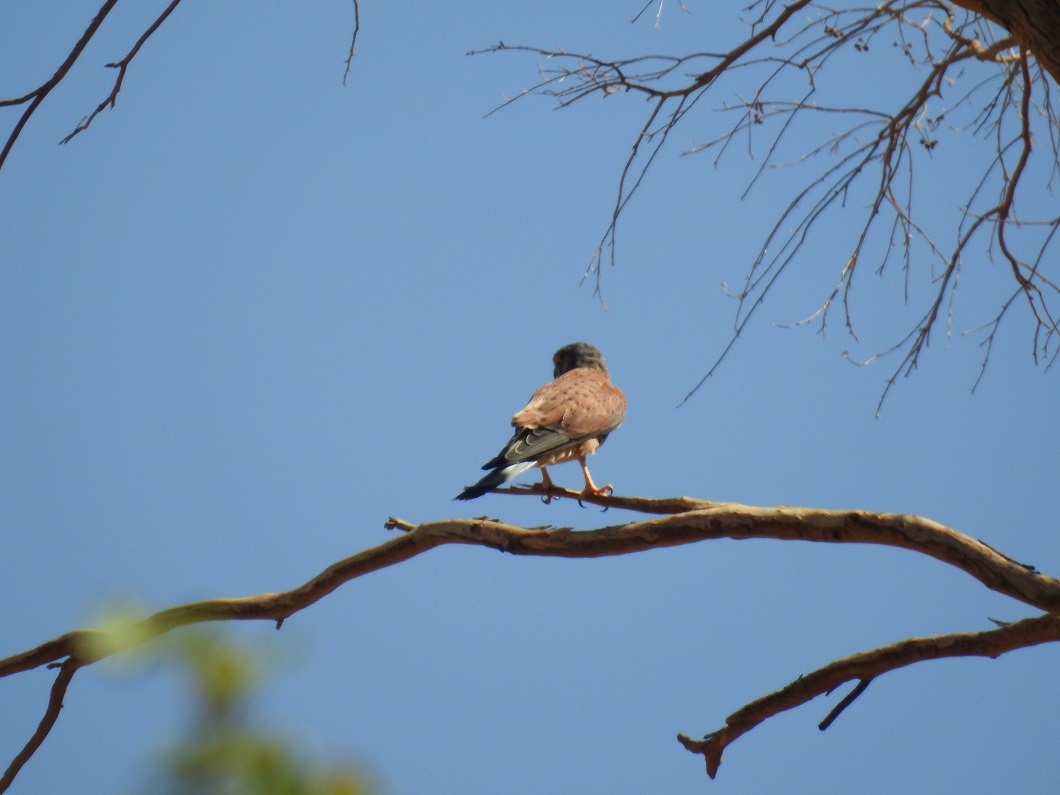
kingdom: Animalia
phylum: Chordata
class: Aves
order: Falconiformes
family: Falconidae
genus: Falco
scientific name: Falco tinnunculus
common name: Common kestrel
